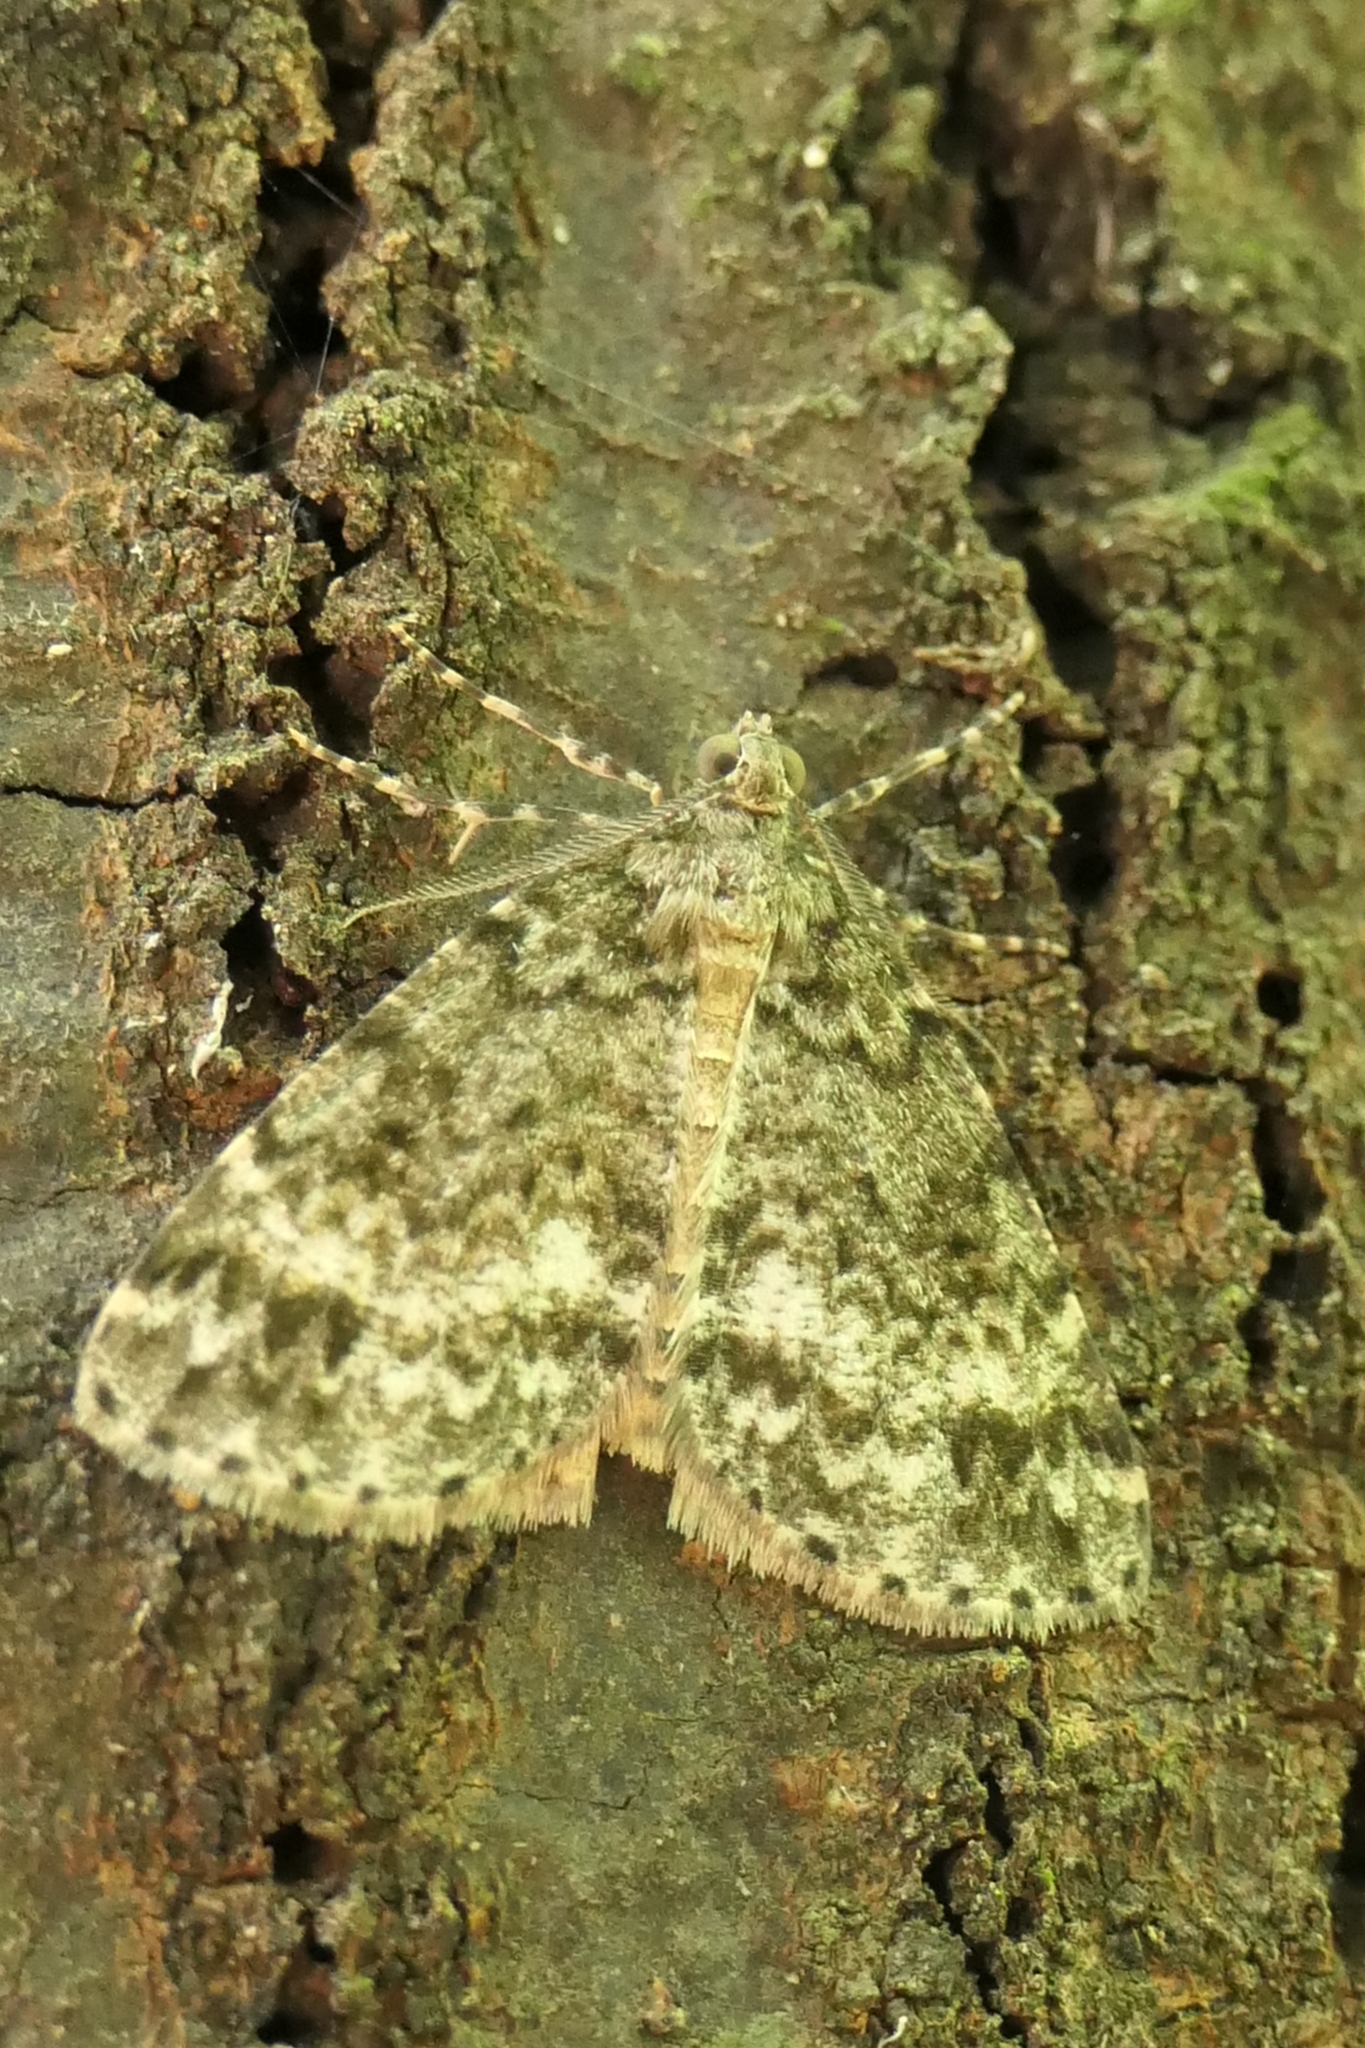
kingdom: Animalia
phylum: Arthropoda
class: Insecta
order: Lepidoptera
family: Geometridae
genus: Pseudocoremia
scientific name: Pseudocoremia indistincta
